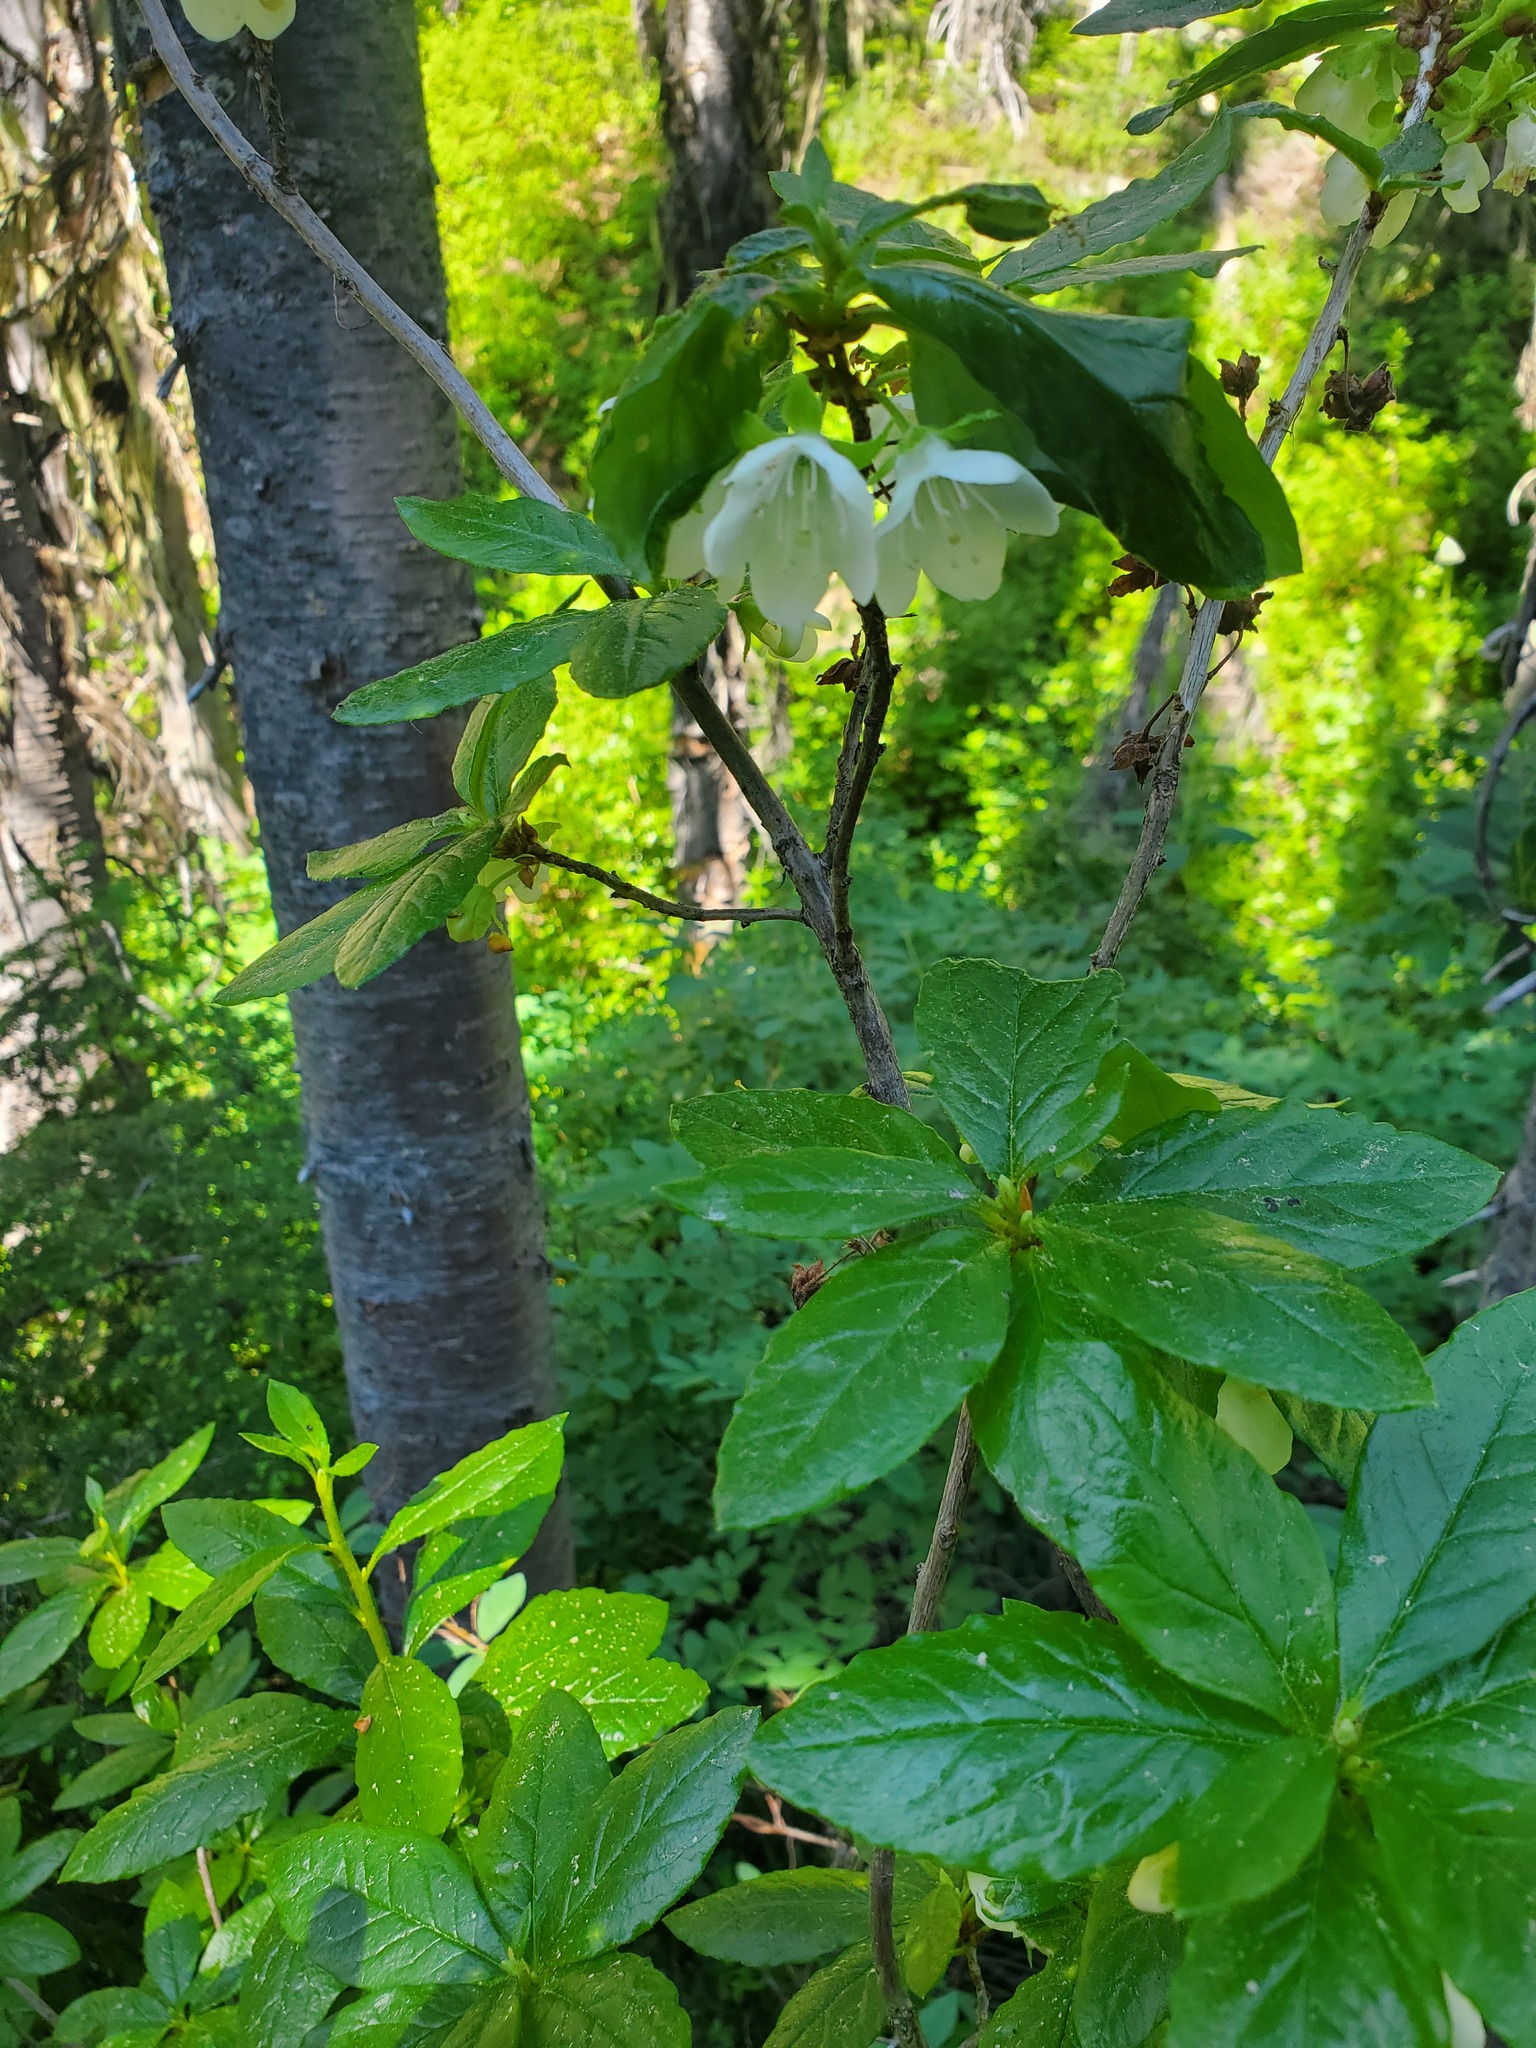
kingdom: Plantae
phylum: Tracheophyta
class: Magnoliopsida
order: Ericales
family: Ericaceae
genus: Rhododendron
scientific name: Rhododendron albiflorum
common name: White rhododendron
